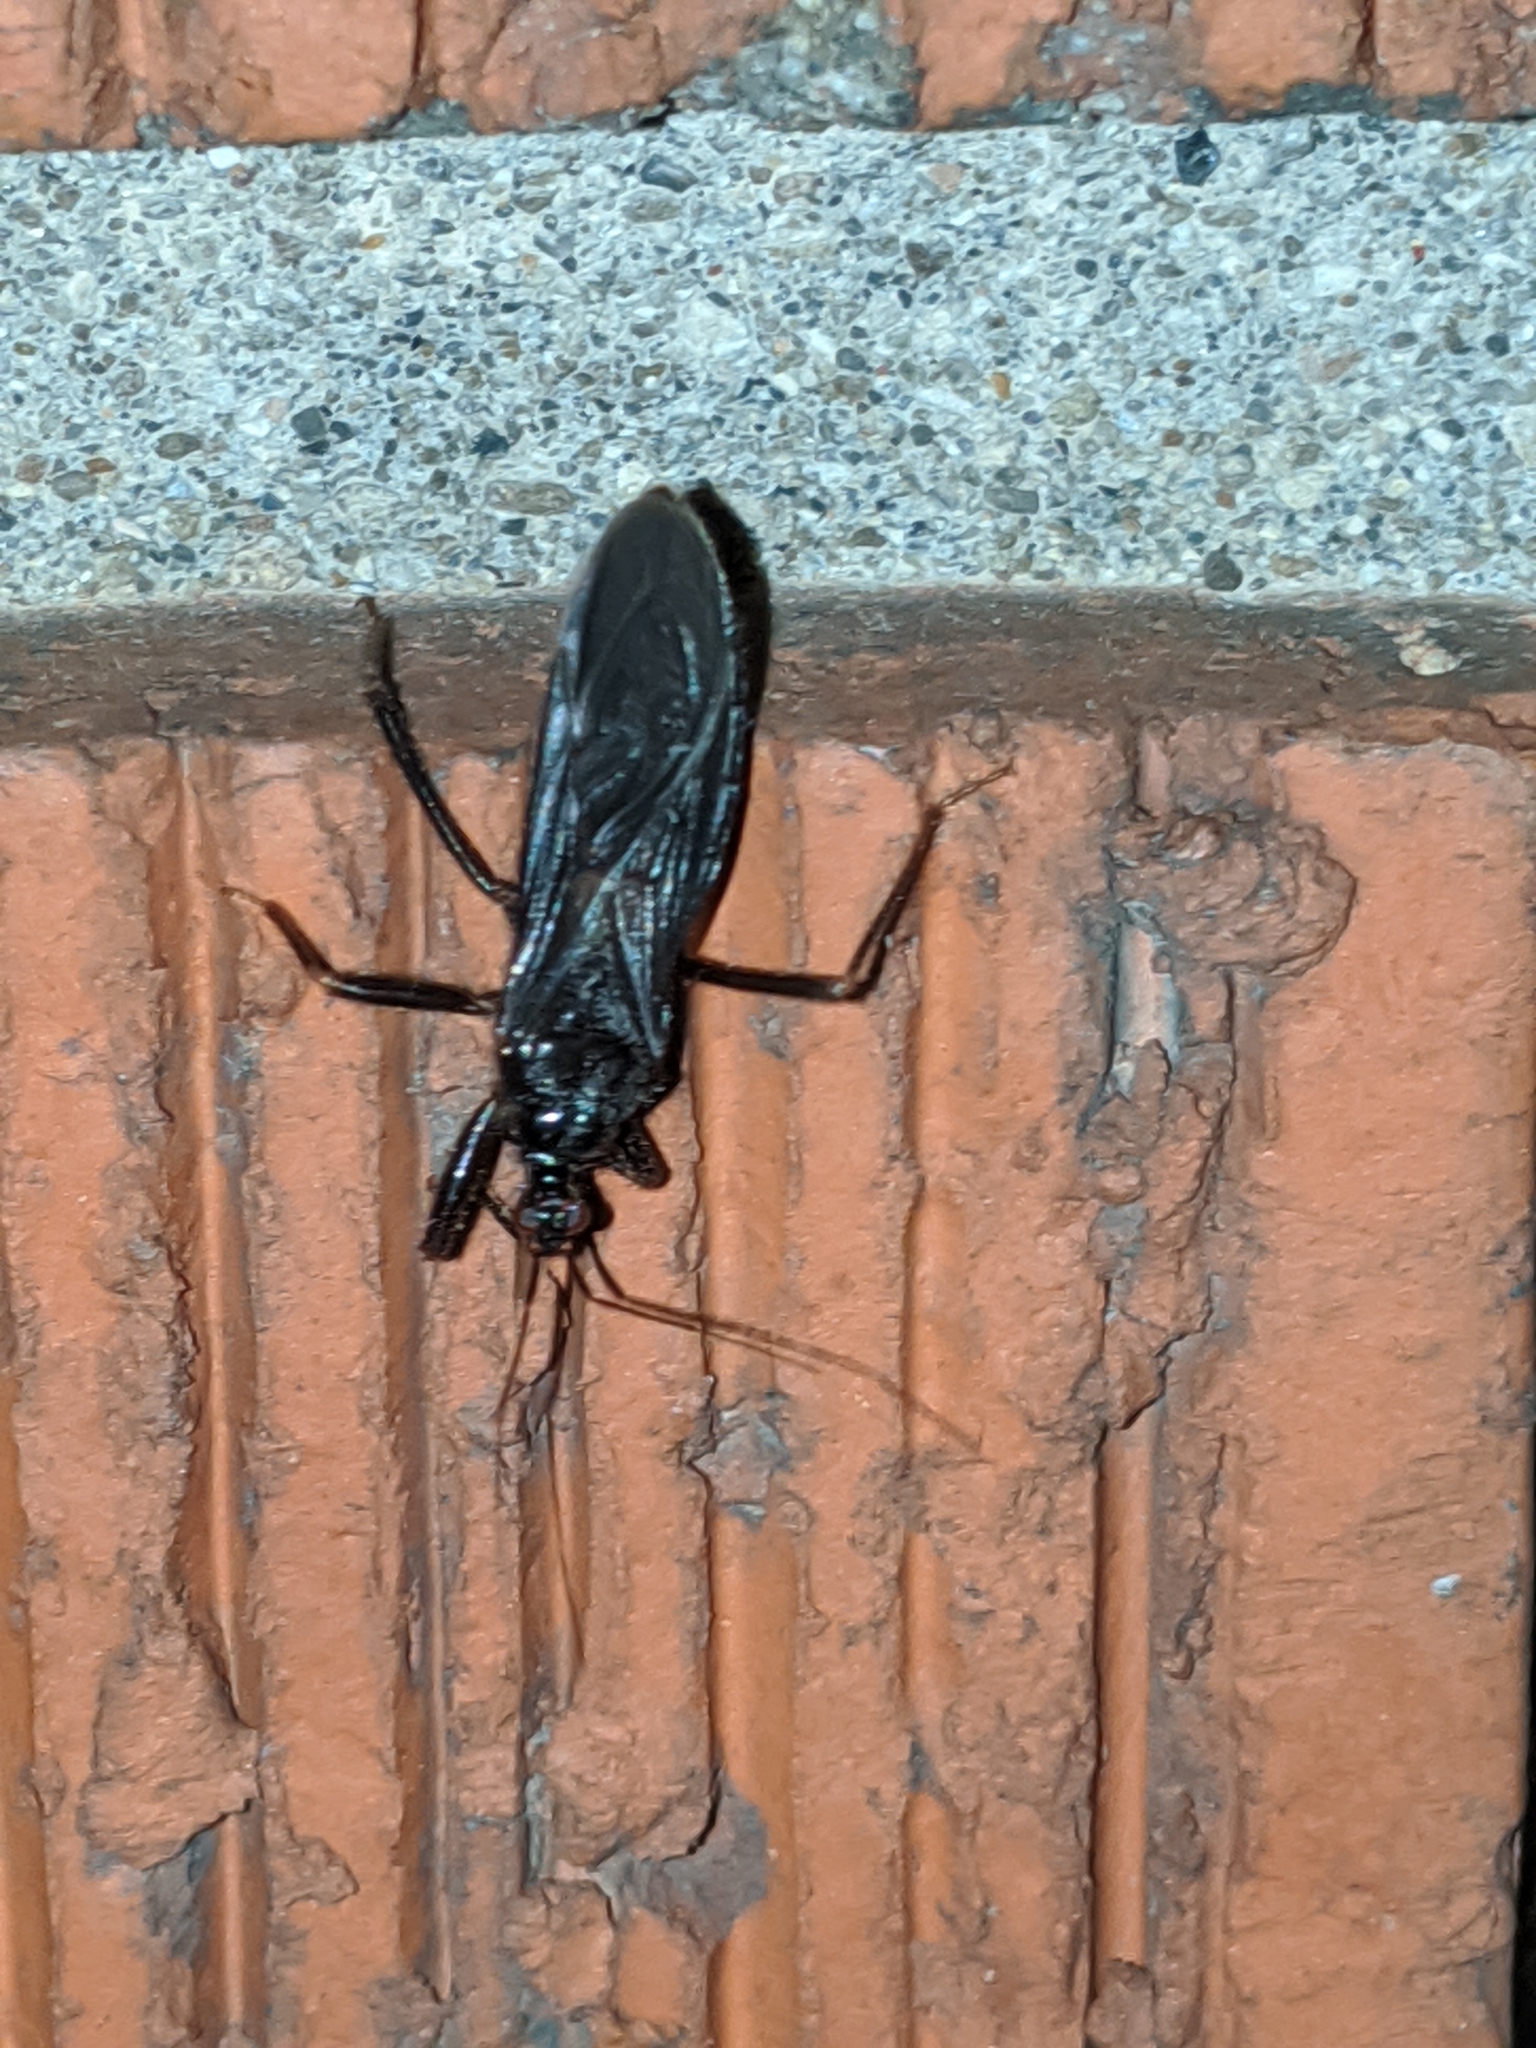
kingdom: Animalia
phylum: Arthropoda
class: Insecta
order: Hemiptera
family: Reduviidae
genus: Reduvius
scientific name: Reduvius personatus
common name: Masked hunter
